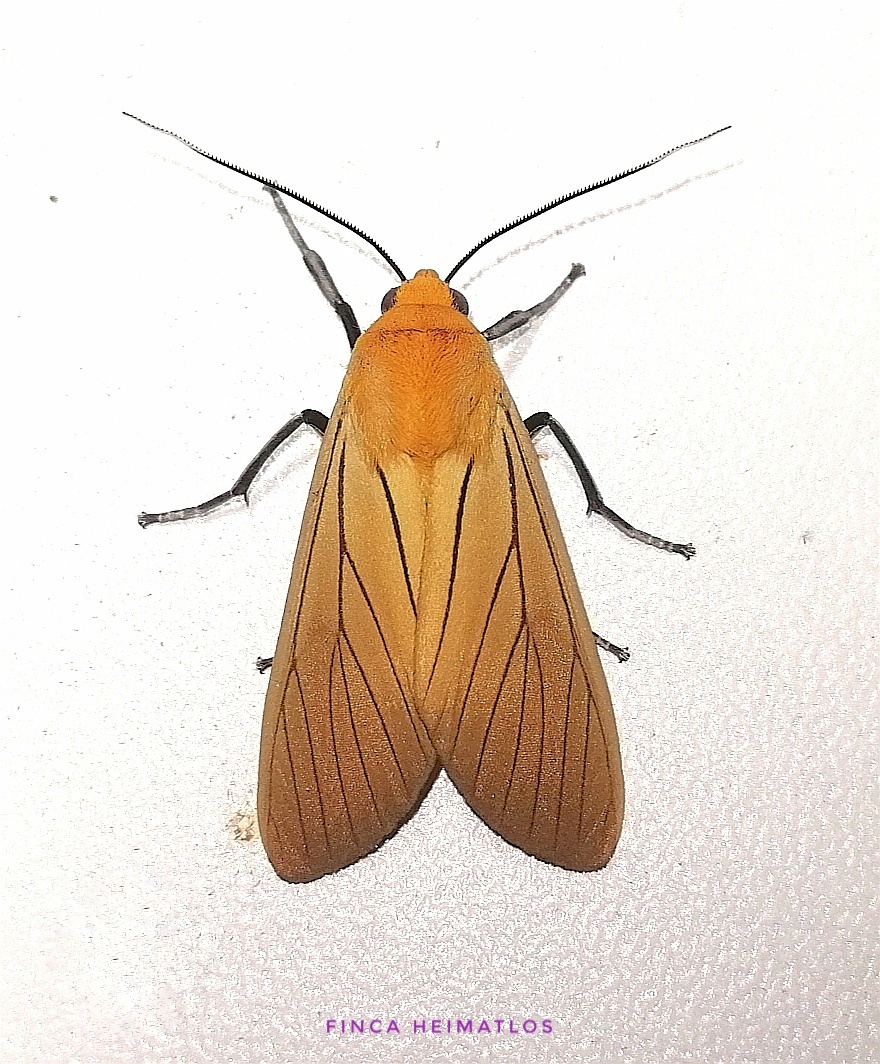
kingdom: Animalia
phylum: Arthropoda
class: Insecta
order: Lepidoptera
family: Erebidae
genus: Melese
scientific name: Melese
